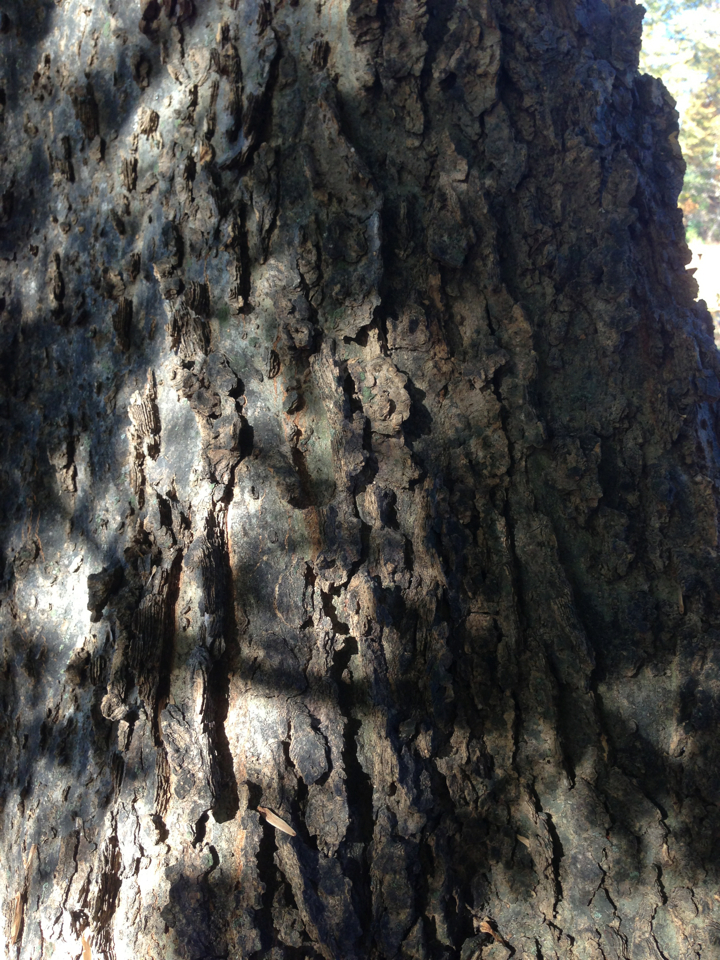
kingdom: Plantae
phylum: Tracheophyta
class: Magnoliopsida
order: Rosales
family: Cannabaceae
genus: Celtis
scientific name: Celtis occidentalis
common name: Common hackberry
